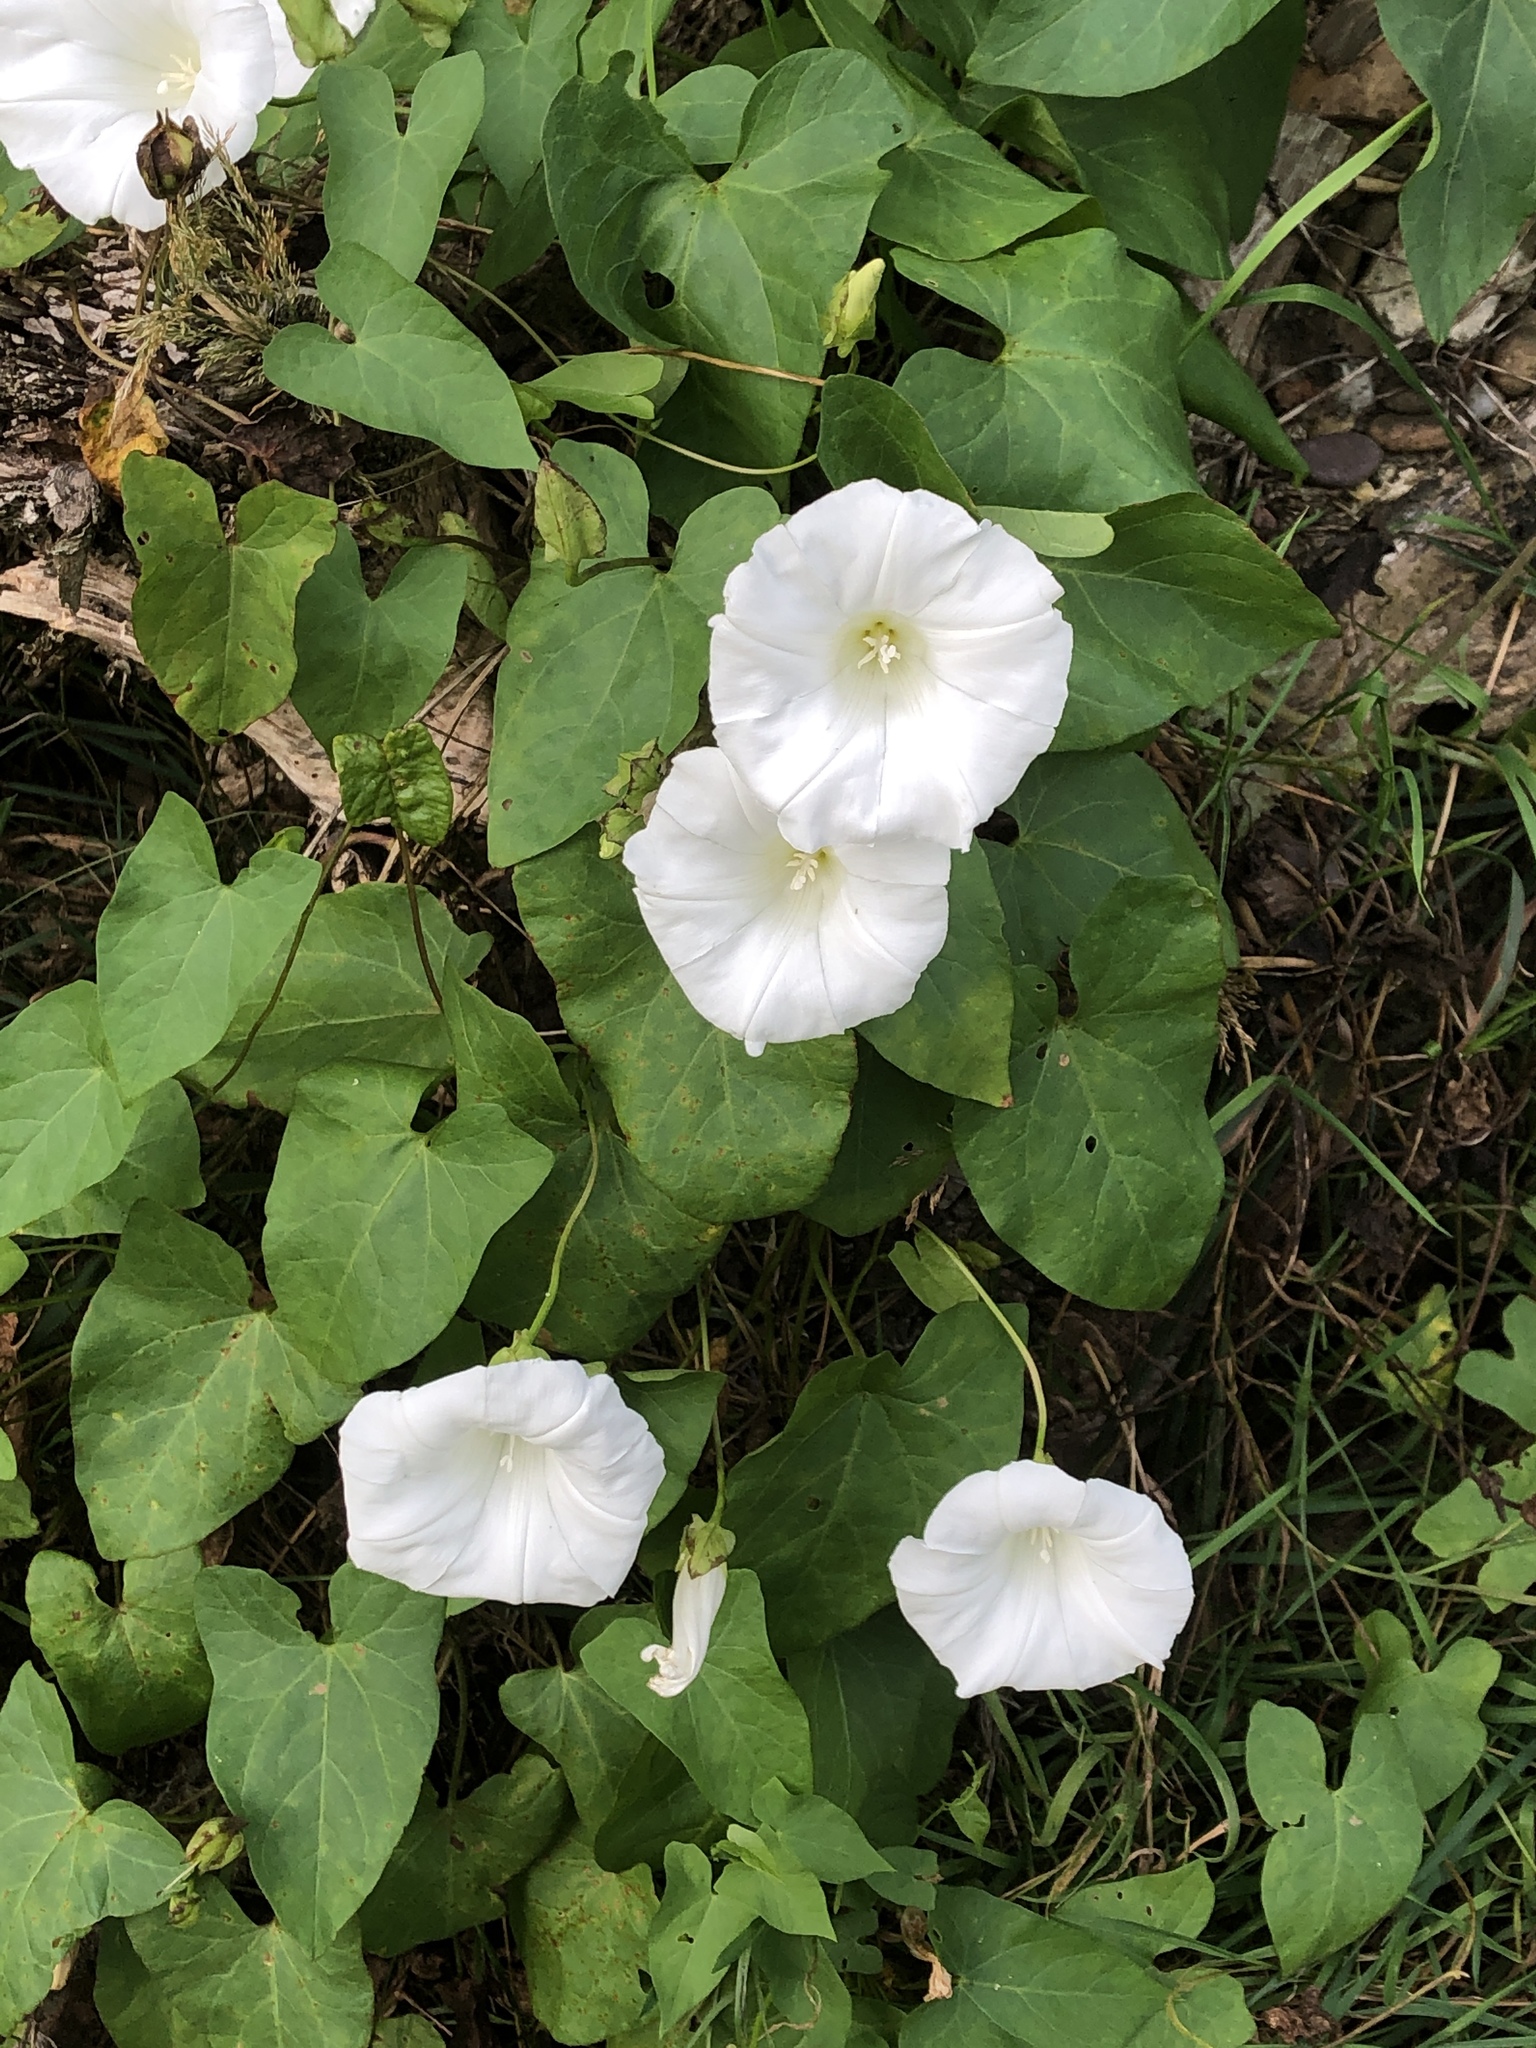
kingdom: Plantae
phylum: Tracheophyta
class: Magnoliopsida
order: Solanales
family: Convolvulaceae
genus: Calystegia
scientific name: Calystegia sepium
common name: Hedge bindweed
